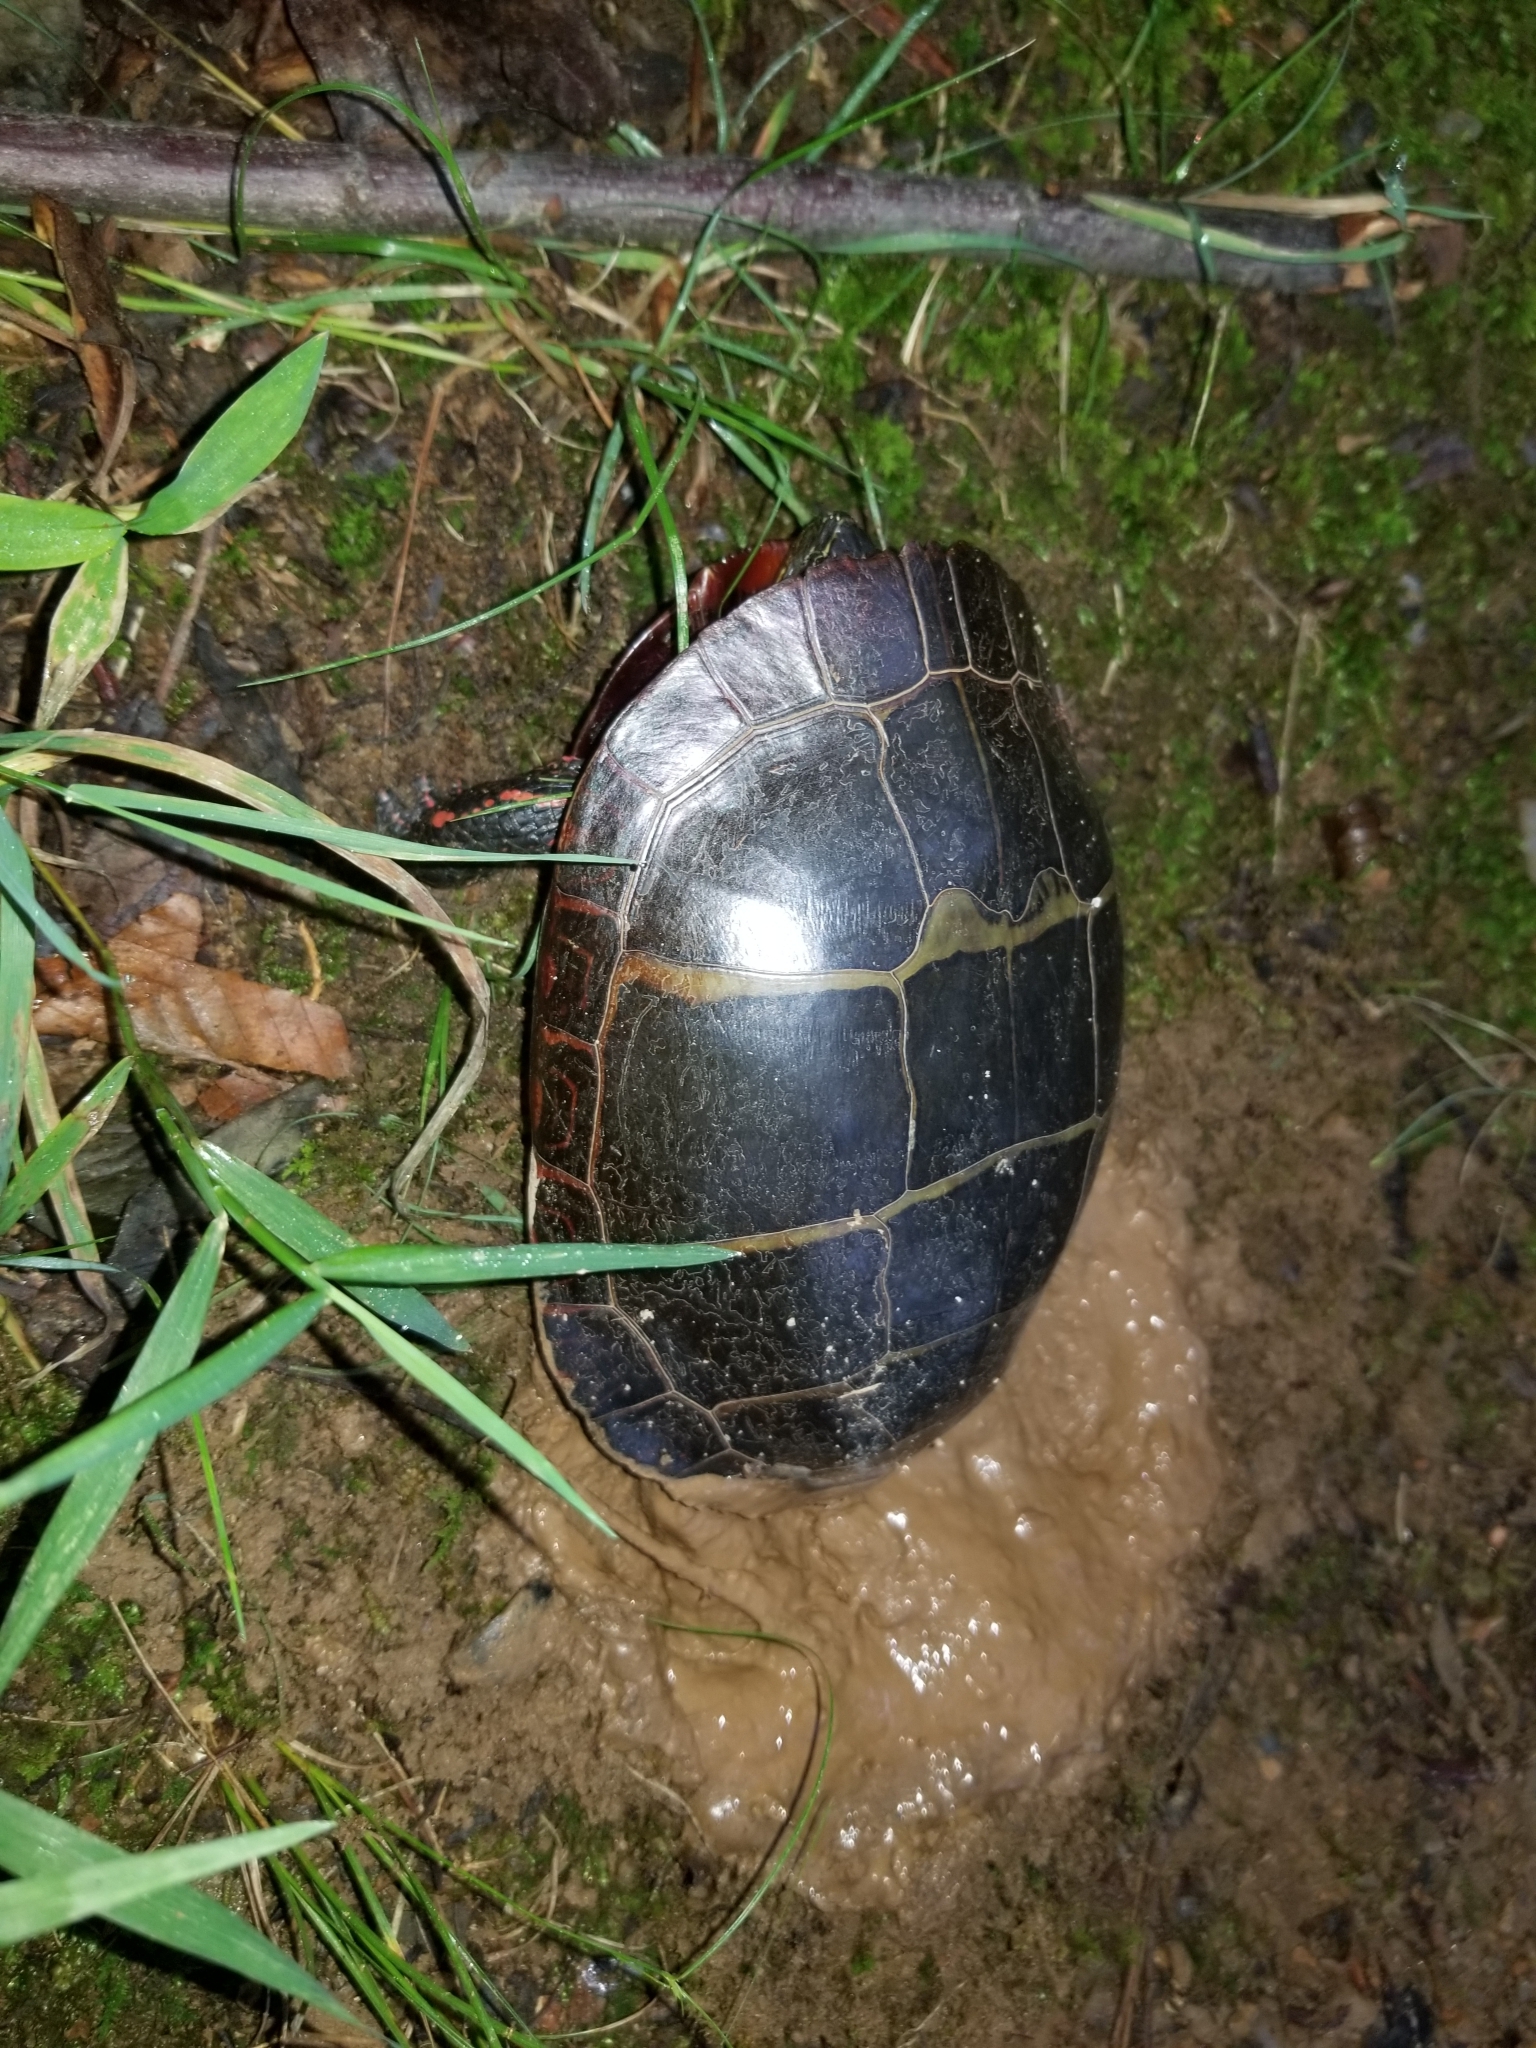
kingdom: Animalia
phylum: Chordata
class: Testudines
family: Emydidae
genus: Chrysemys
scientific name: Chrysemys picta
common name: Painted turtle
